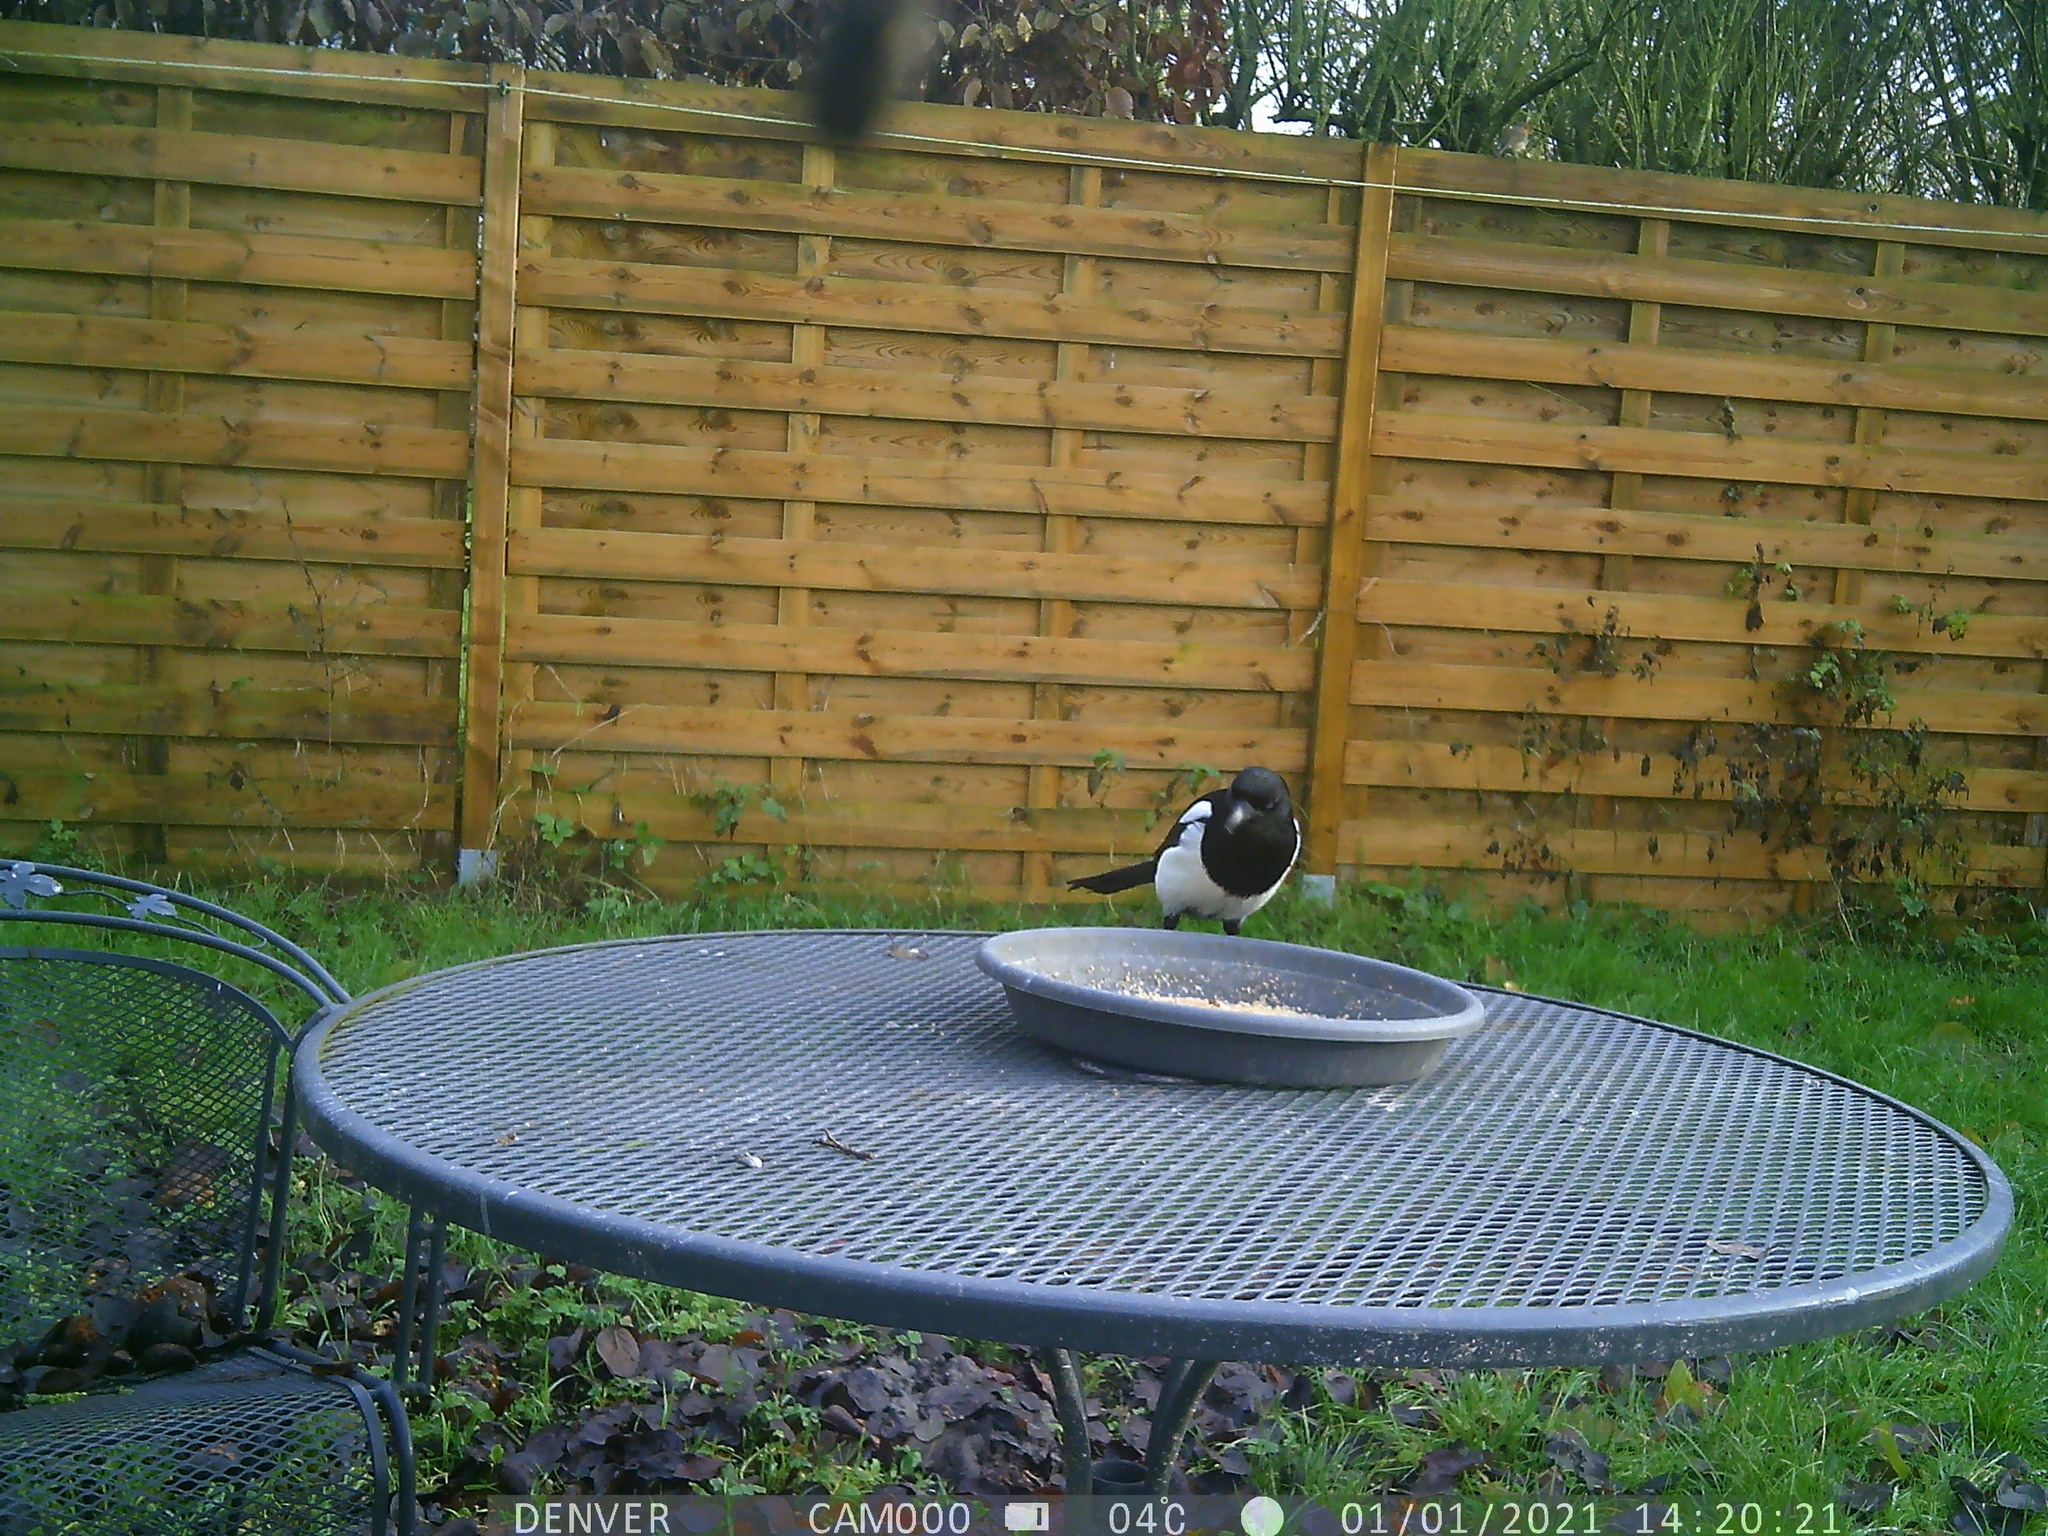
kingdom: Animalia
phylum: Chordata
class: Aves
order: Passeriformes
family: Corvidae
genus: Pica
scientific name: Pica pica
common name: Eurasian magpie
